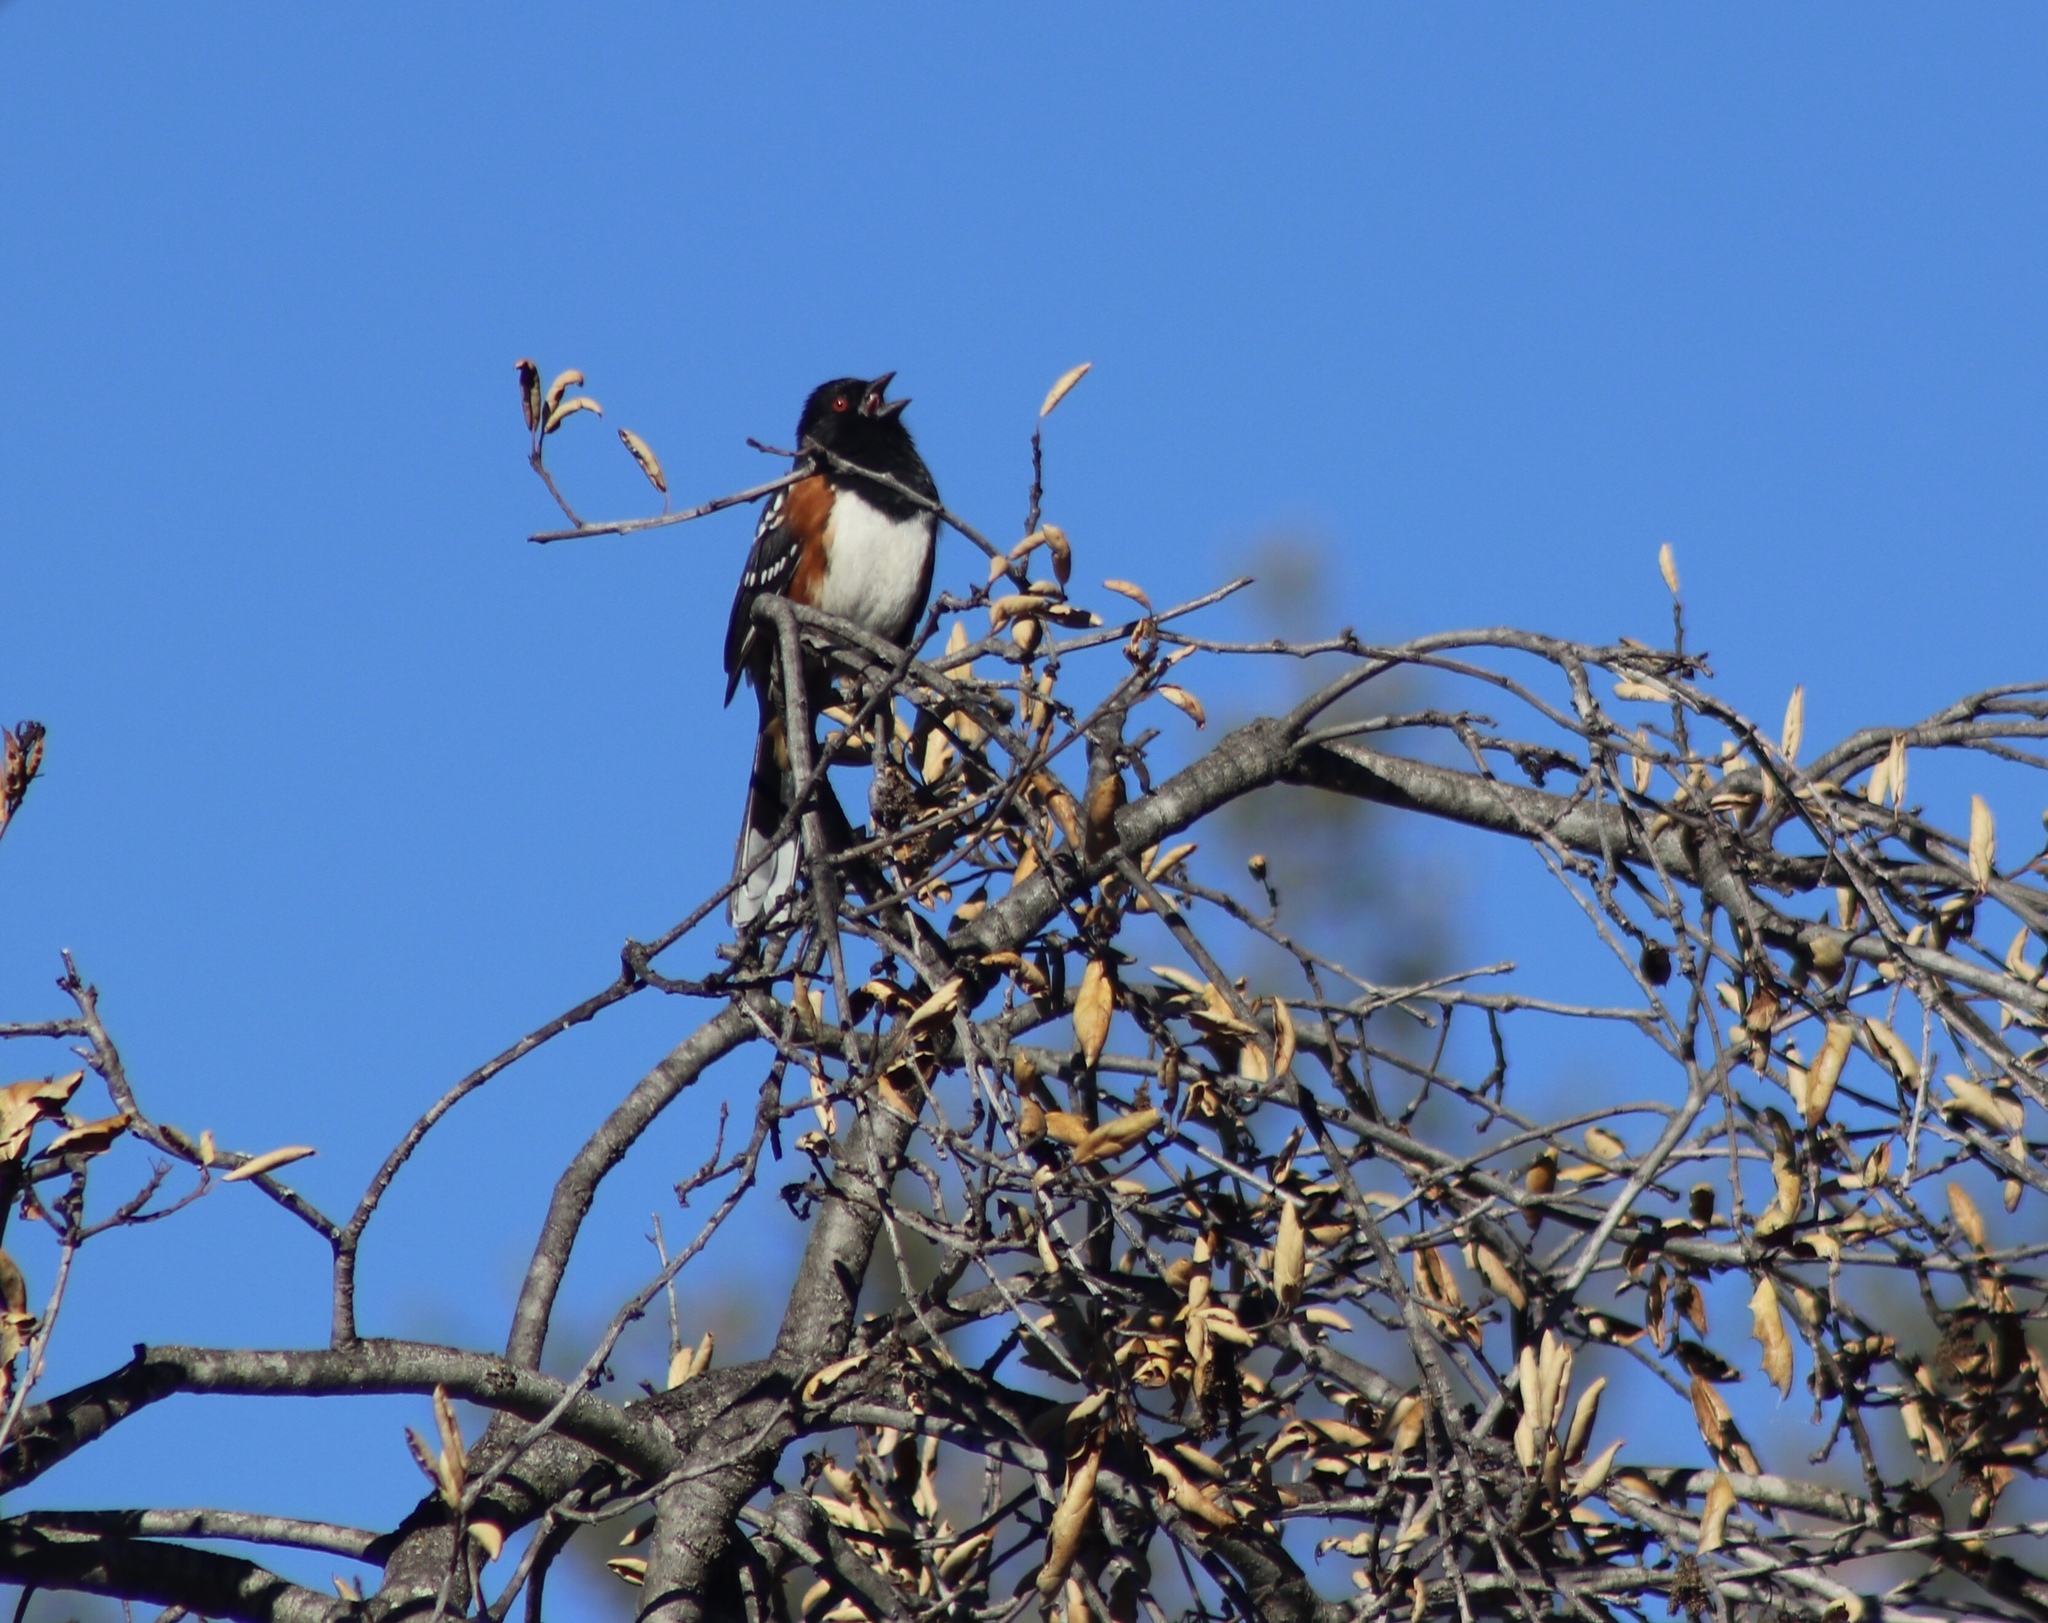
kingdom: Animalia
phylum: Chordata
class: Aves
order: Passeriformes
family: Passerellidae
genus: Pipilo
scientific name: Pipilo maculatus
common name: Spotted towhee
